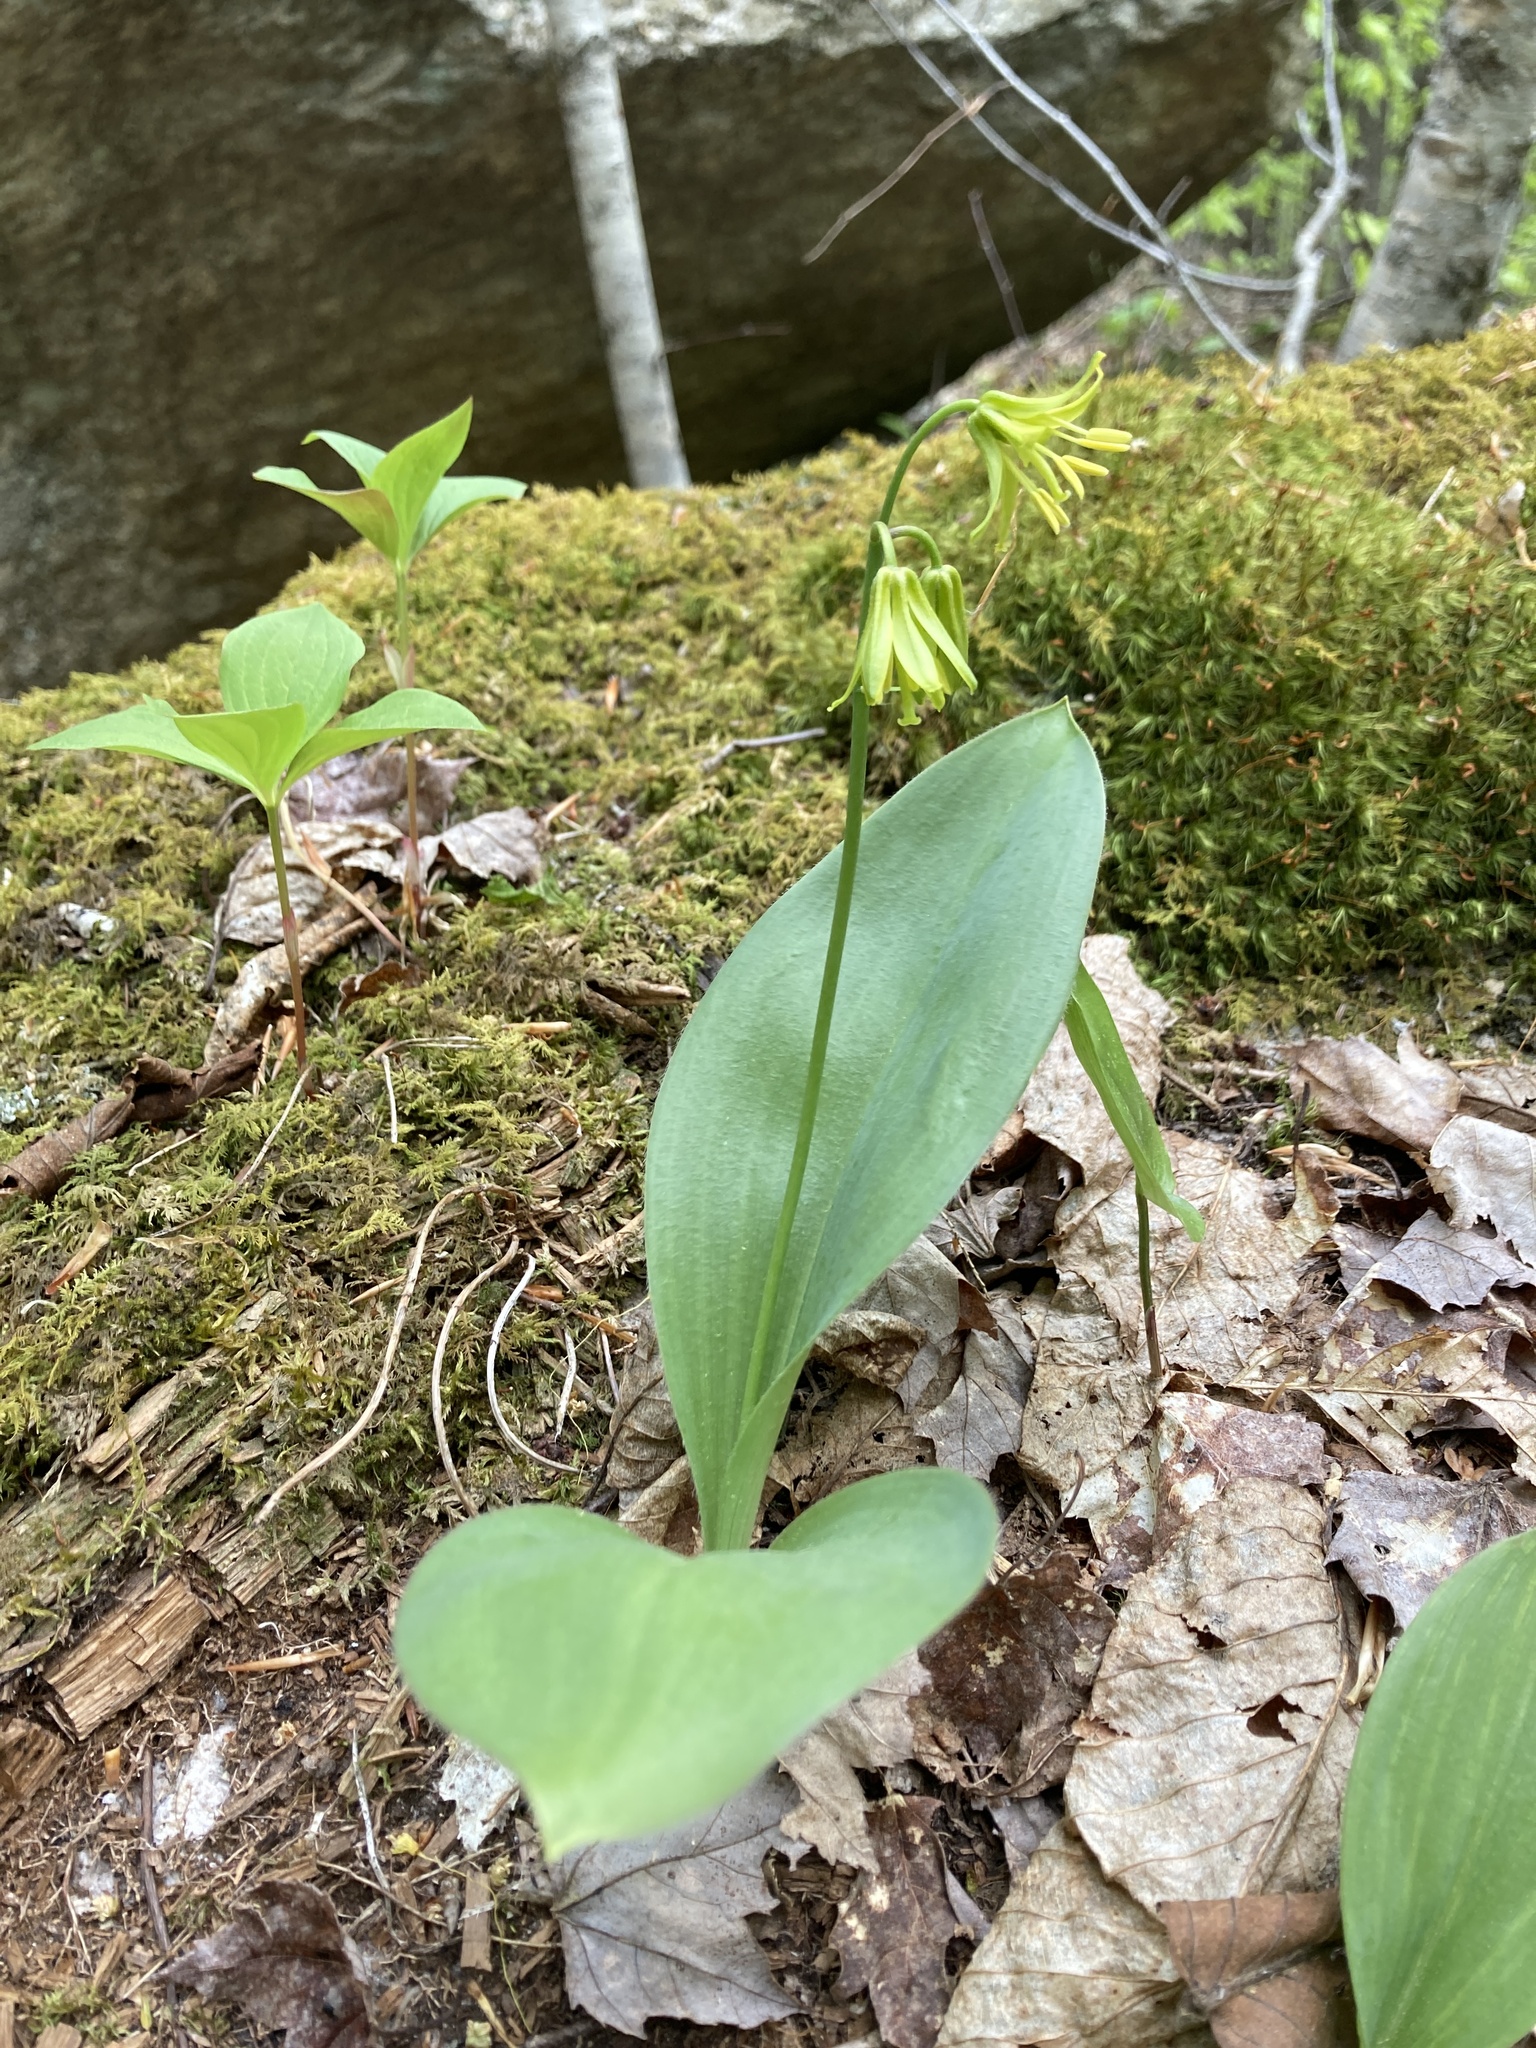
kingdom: Plantae
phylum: Tracheophyta
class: Liliopsida
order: Liliales
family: Liliaceae
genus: Clintonia
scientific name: Clintonia borealis
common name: Yellow clintonia
